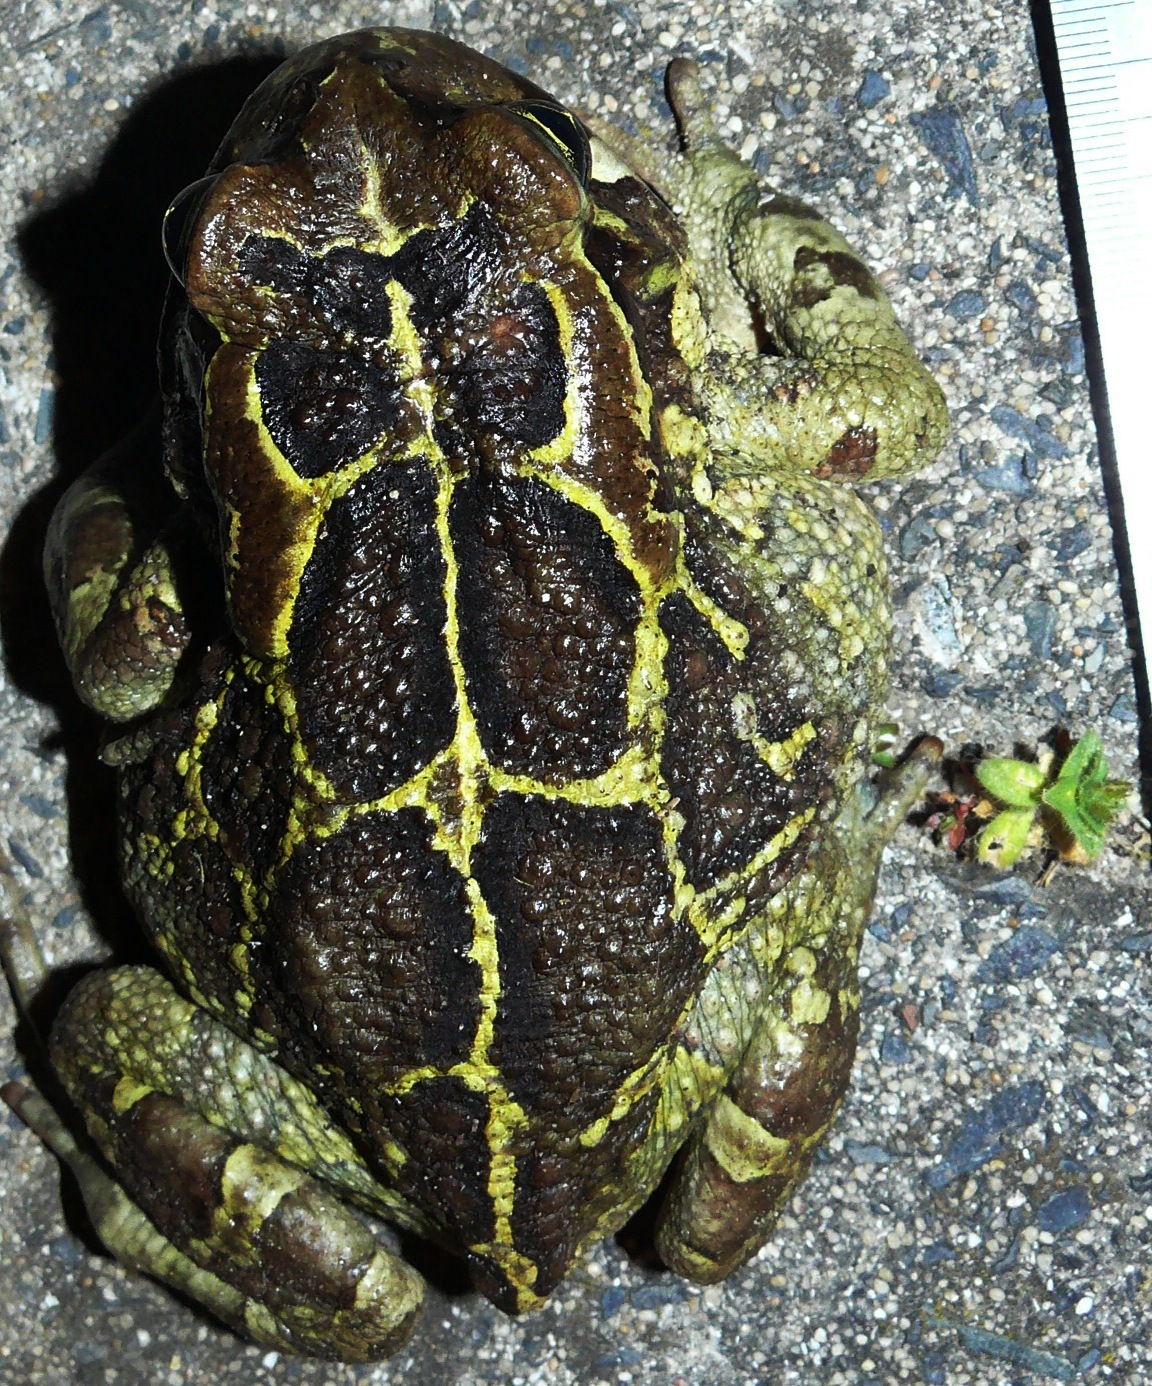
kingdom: Animalia
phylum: Chordata
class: Amphibia
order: Anura
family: Bufonidae
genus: Sclerophrys
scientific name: Sclerophrys pantherina
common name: Panther toad
